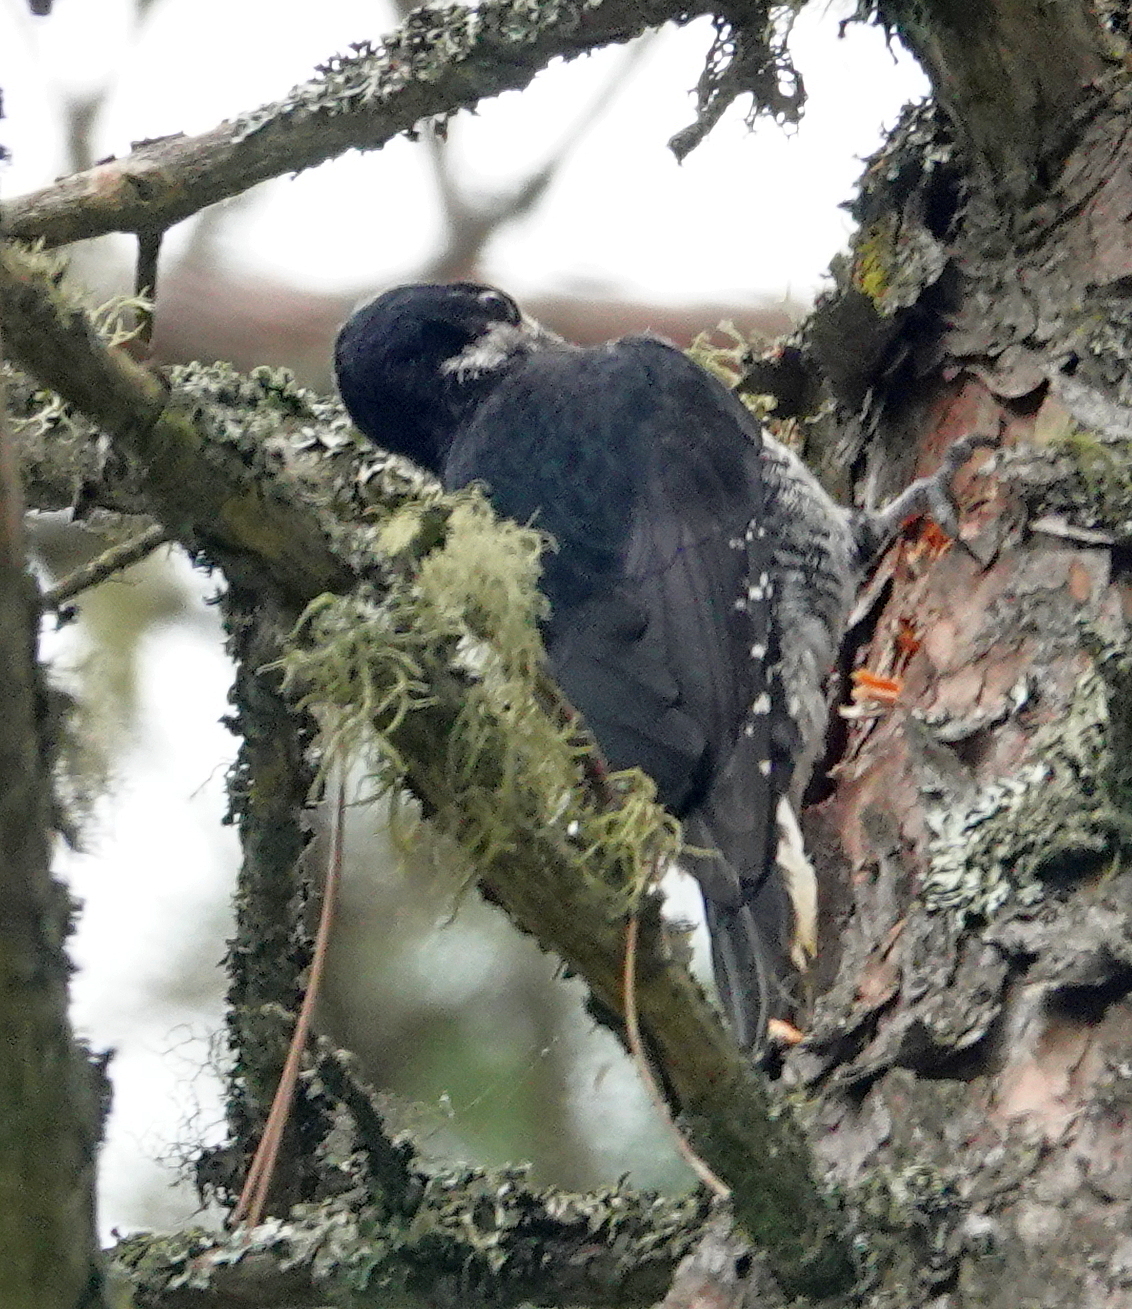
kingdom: Animalia
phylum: Chordata
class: Aves
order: Piciformes
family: Picidae
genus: Picoides
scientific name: Picoides arcticus
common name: Black-backed woodpecker
